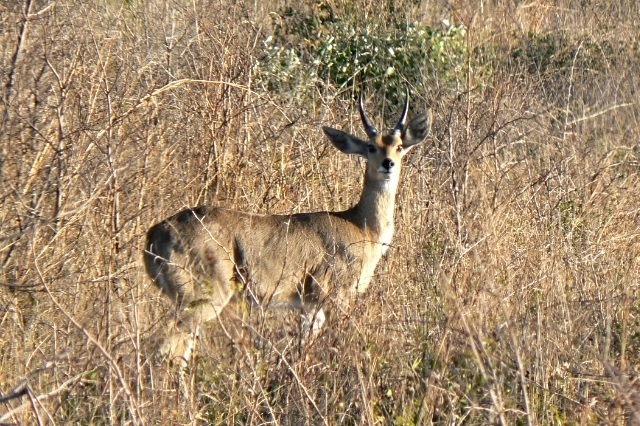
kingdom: Animalia
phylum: Chordata
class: Mammalia
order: Artiodactyla
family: Bovidae
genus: Redunca
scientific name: Redunca arundinum
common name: Southern reedbuck
